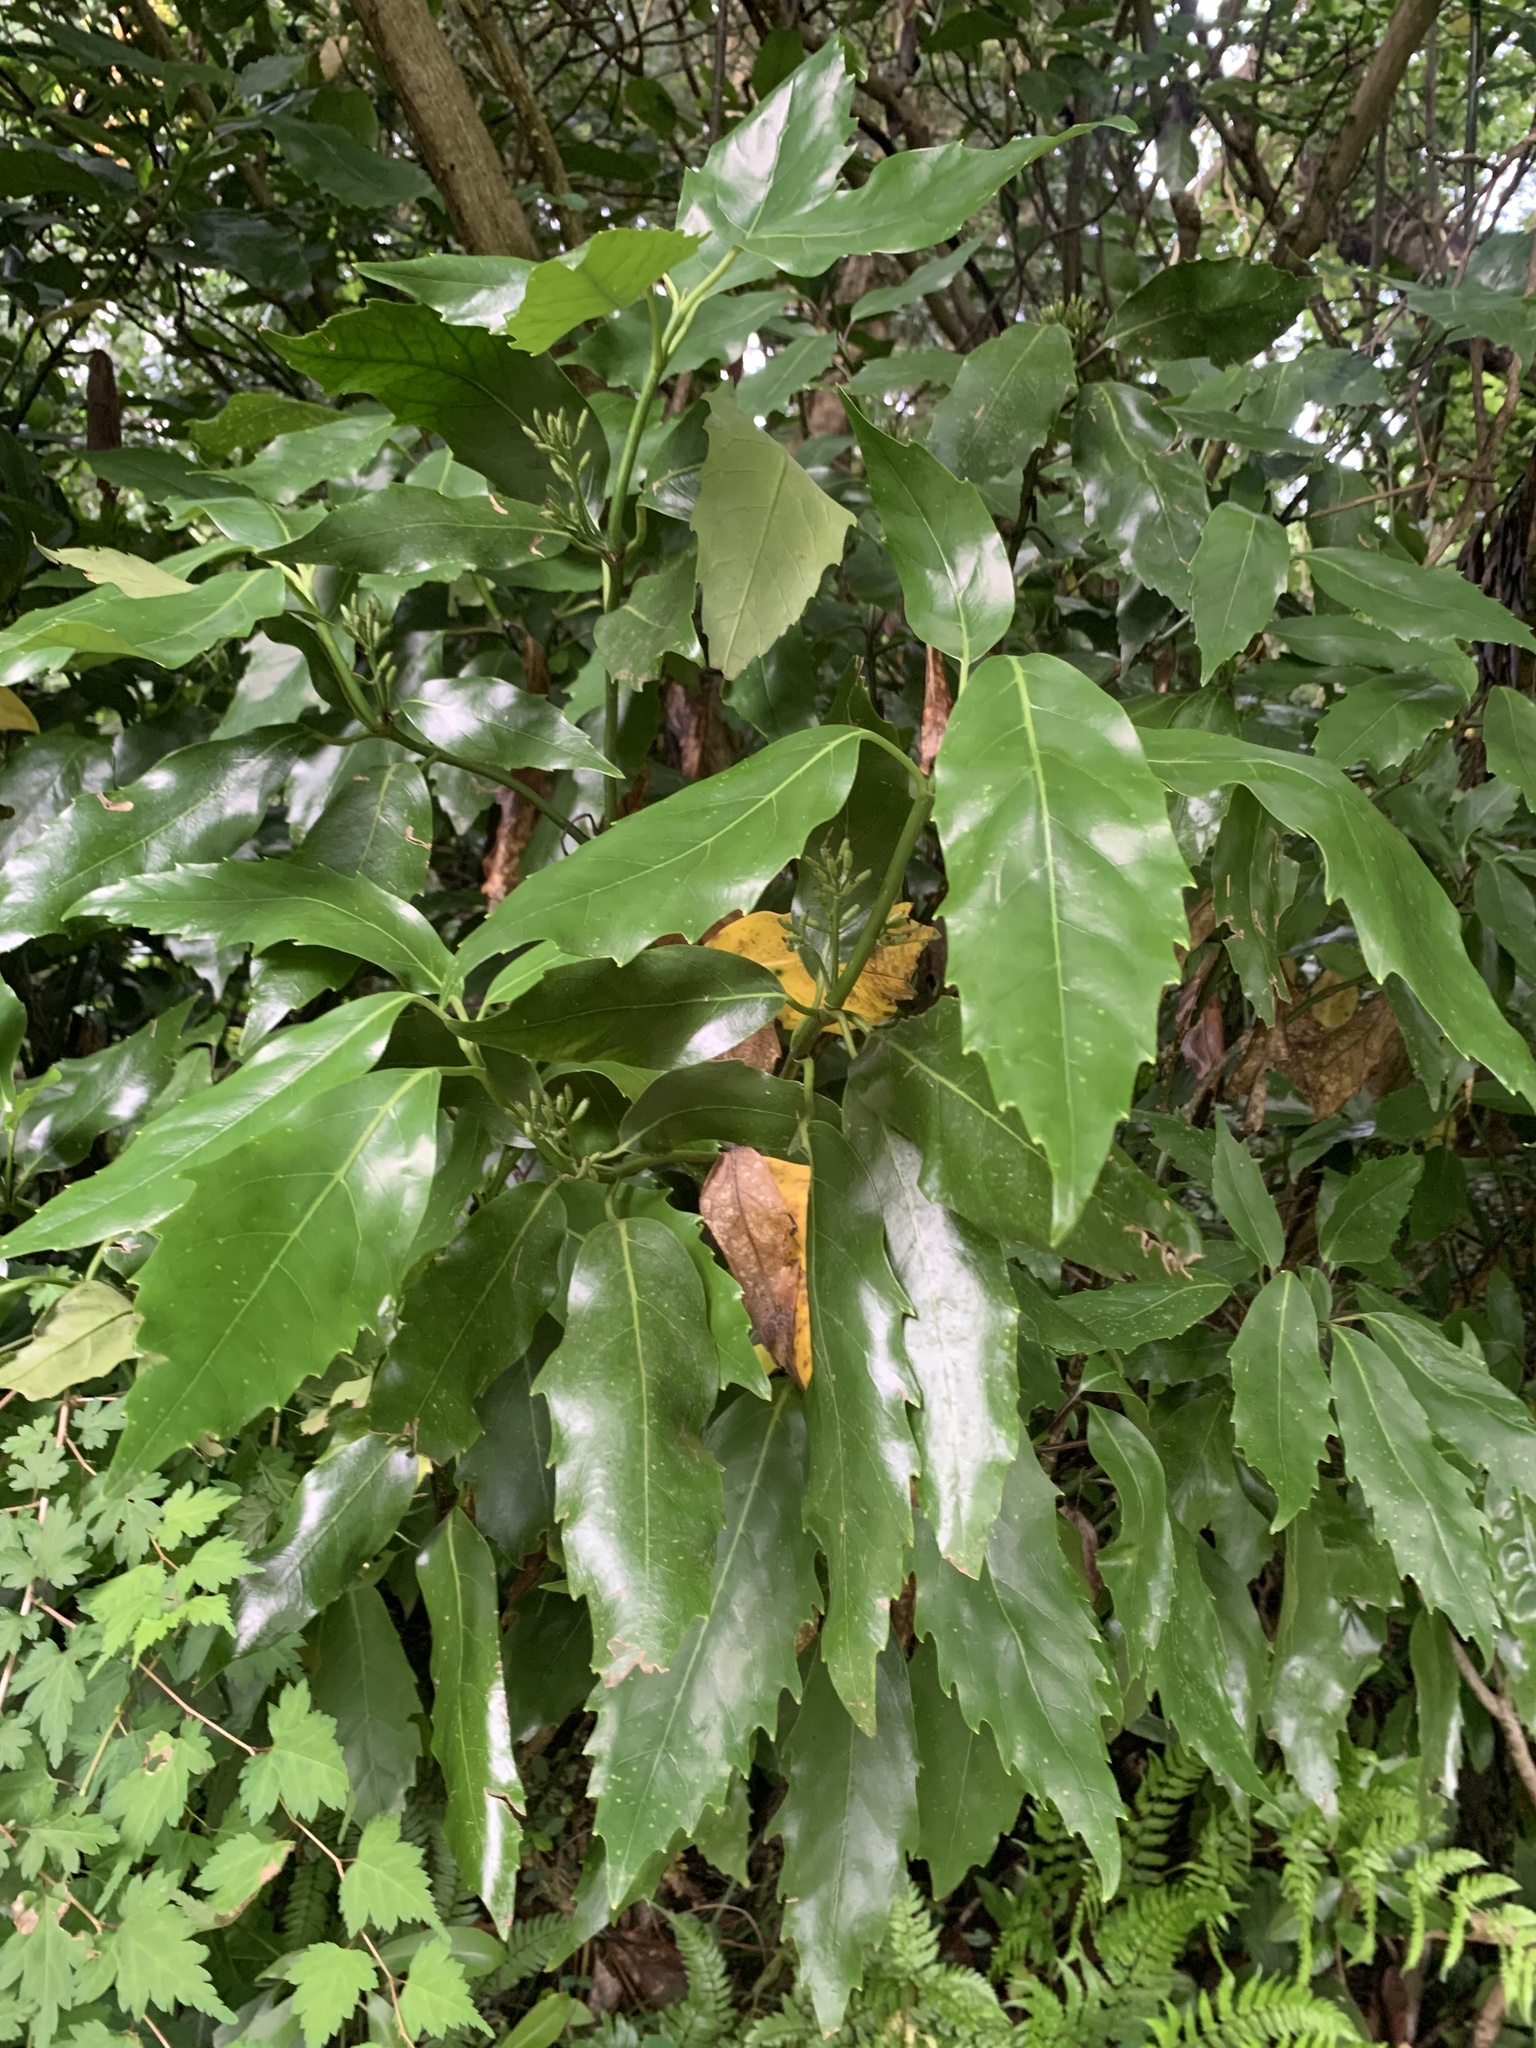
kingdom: Plantae
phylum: Tracheophyta
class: Magnoliopsida
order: Garryales
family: Garryaceae
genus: Aucuba
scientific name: Aucuba japonica
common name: Spotted-laurel
